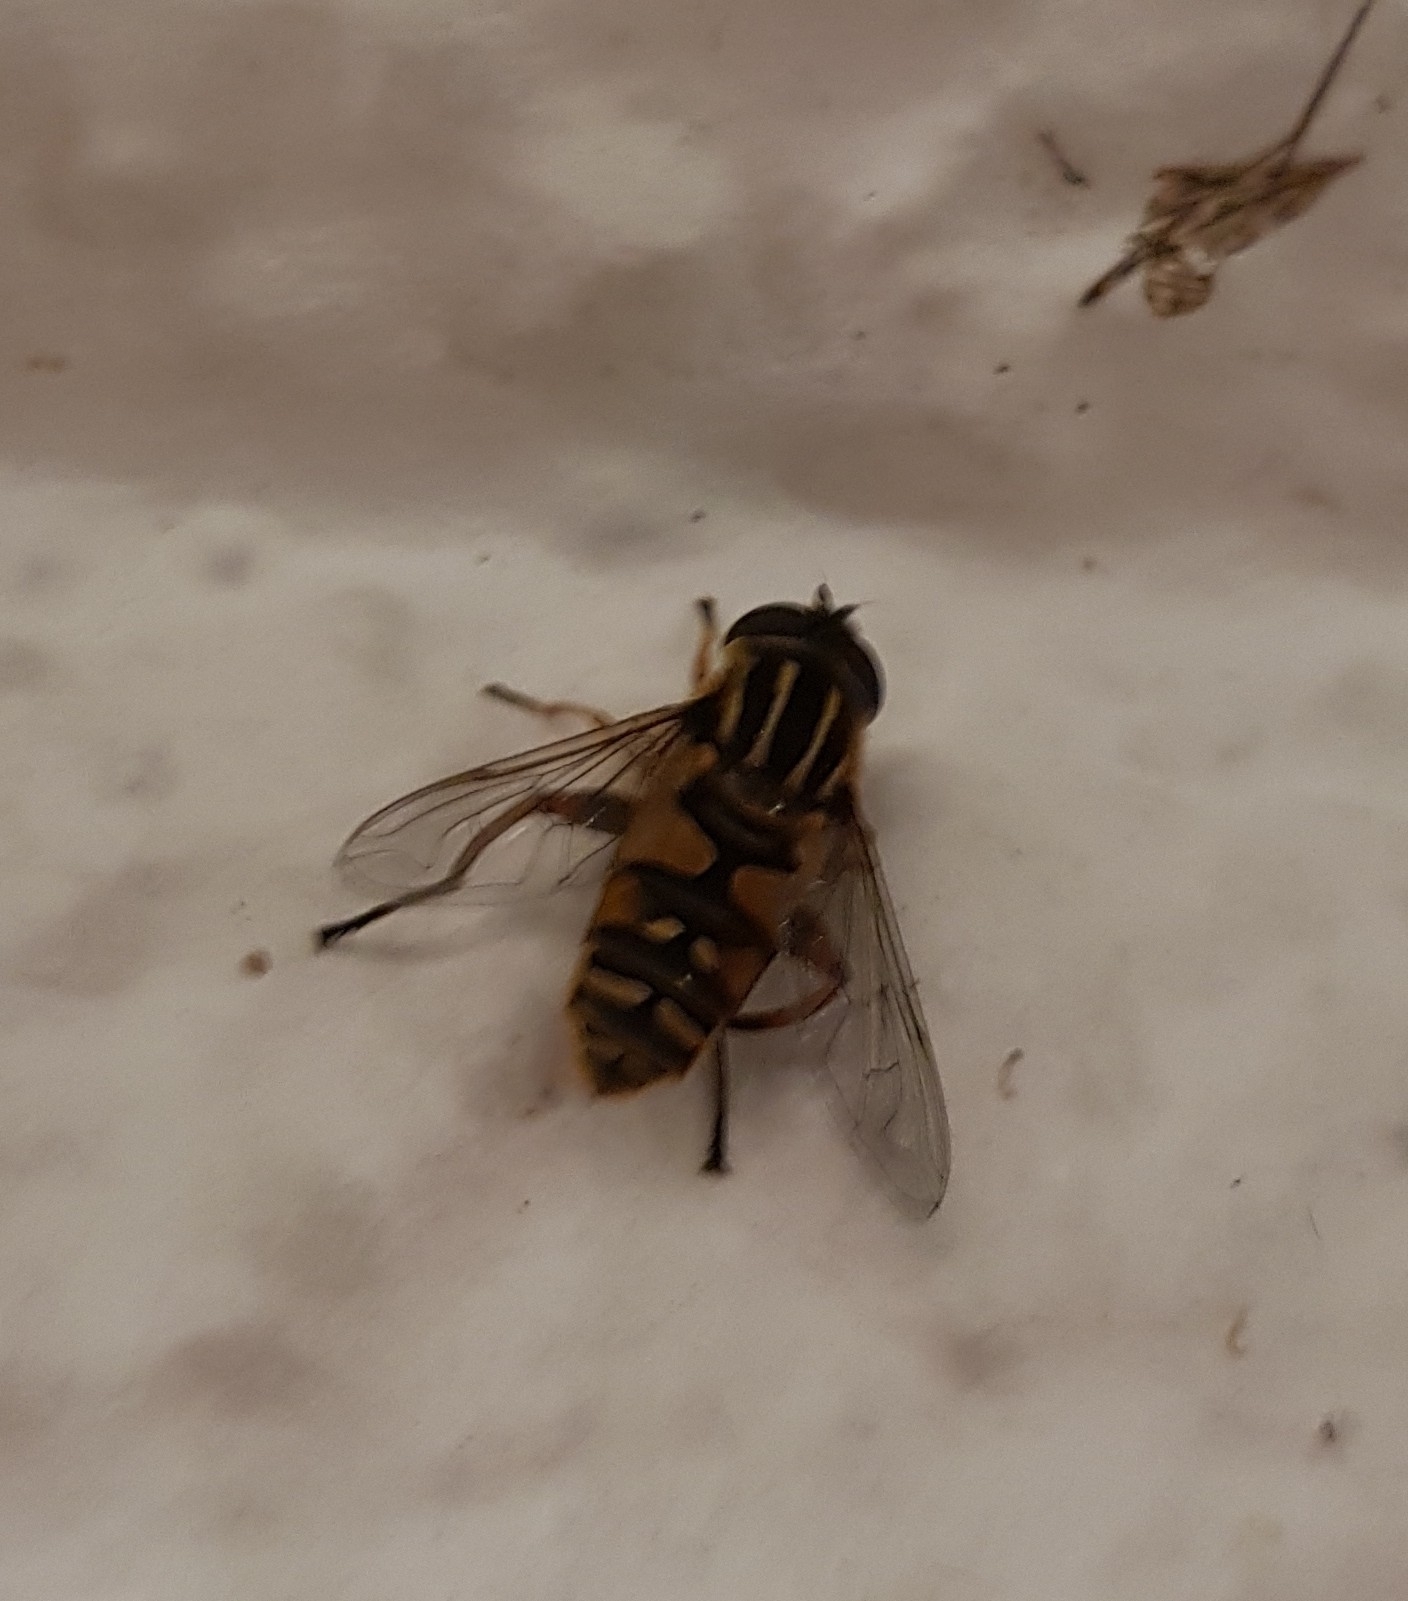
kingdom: Animalia
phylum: Arthropoda
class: Insecta
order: Diptera
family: Syrphidae
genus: Helophilus
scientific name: Helophilus pendulus
